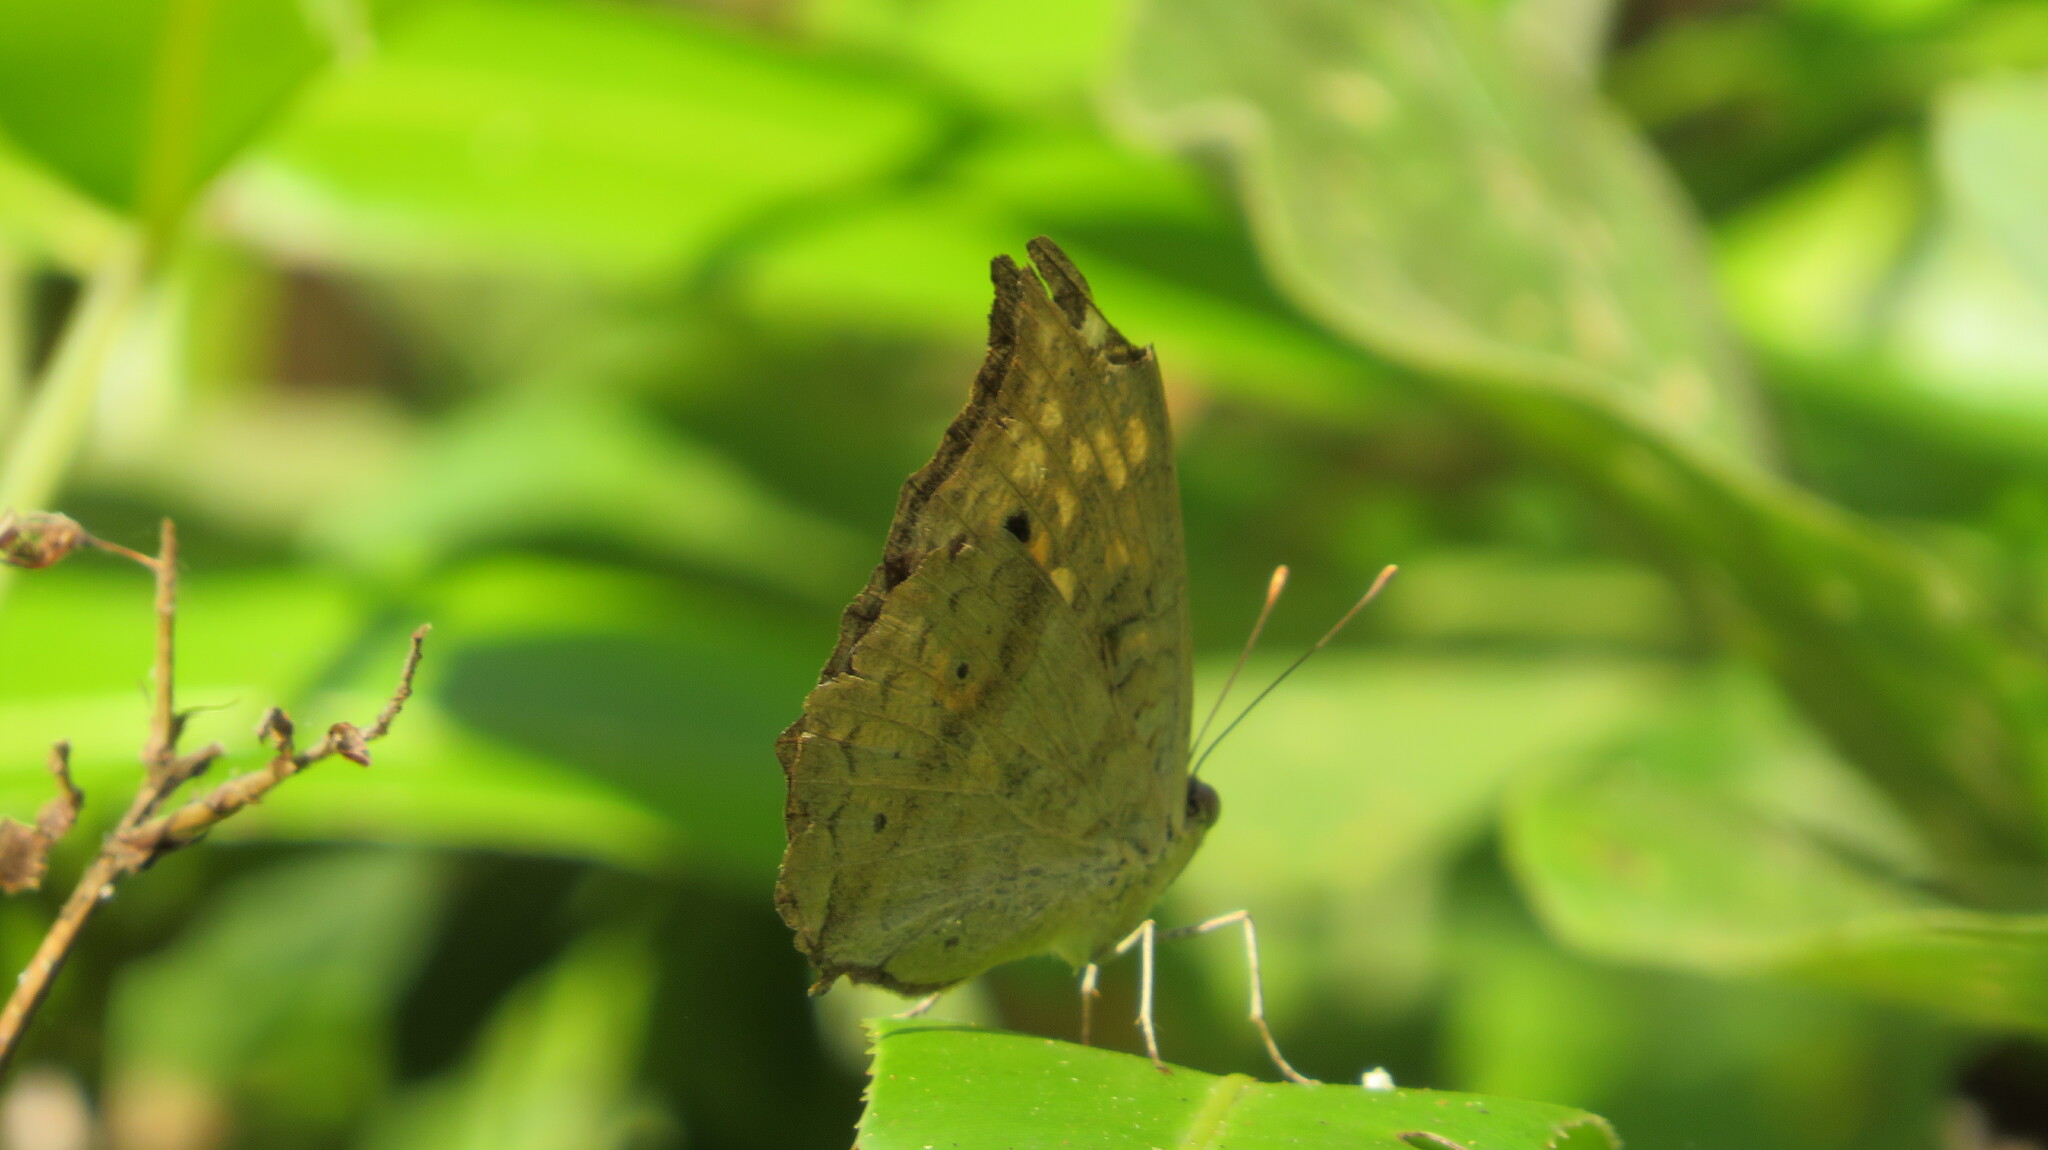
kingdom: Animalia
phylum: Arthropoda
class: Insecta
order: Lepidoptera
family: Nymphalidae
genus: Junonia
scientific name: Junonia lemonias
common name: Lemon pansy
